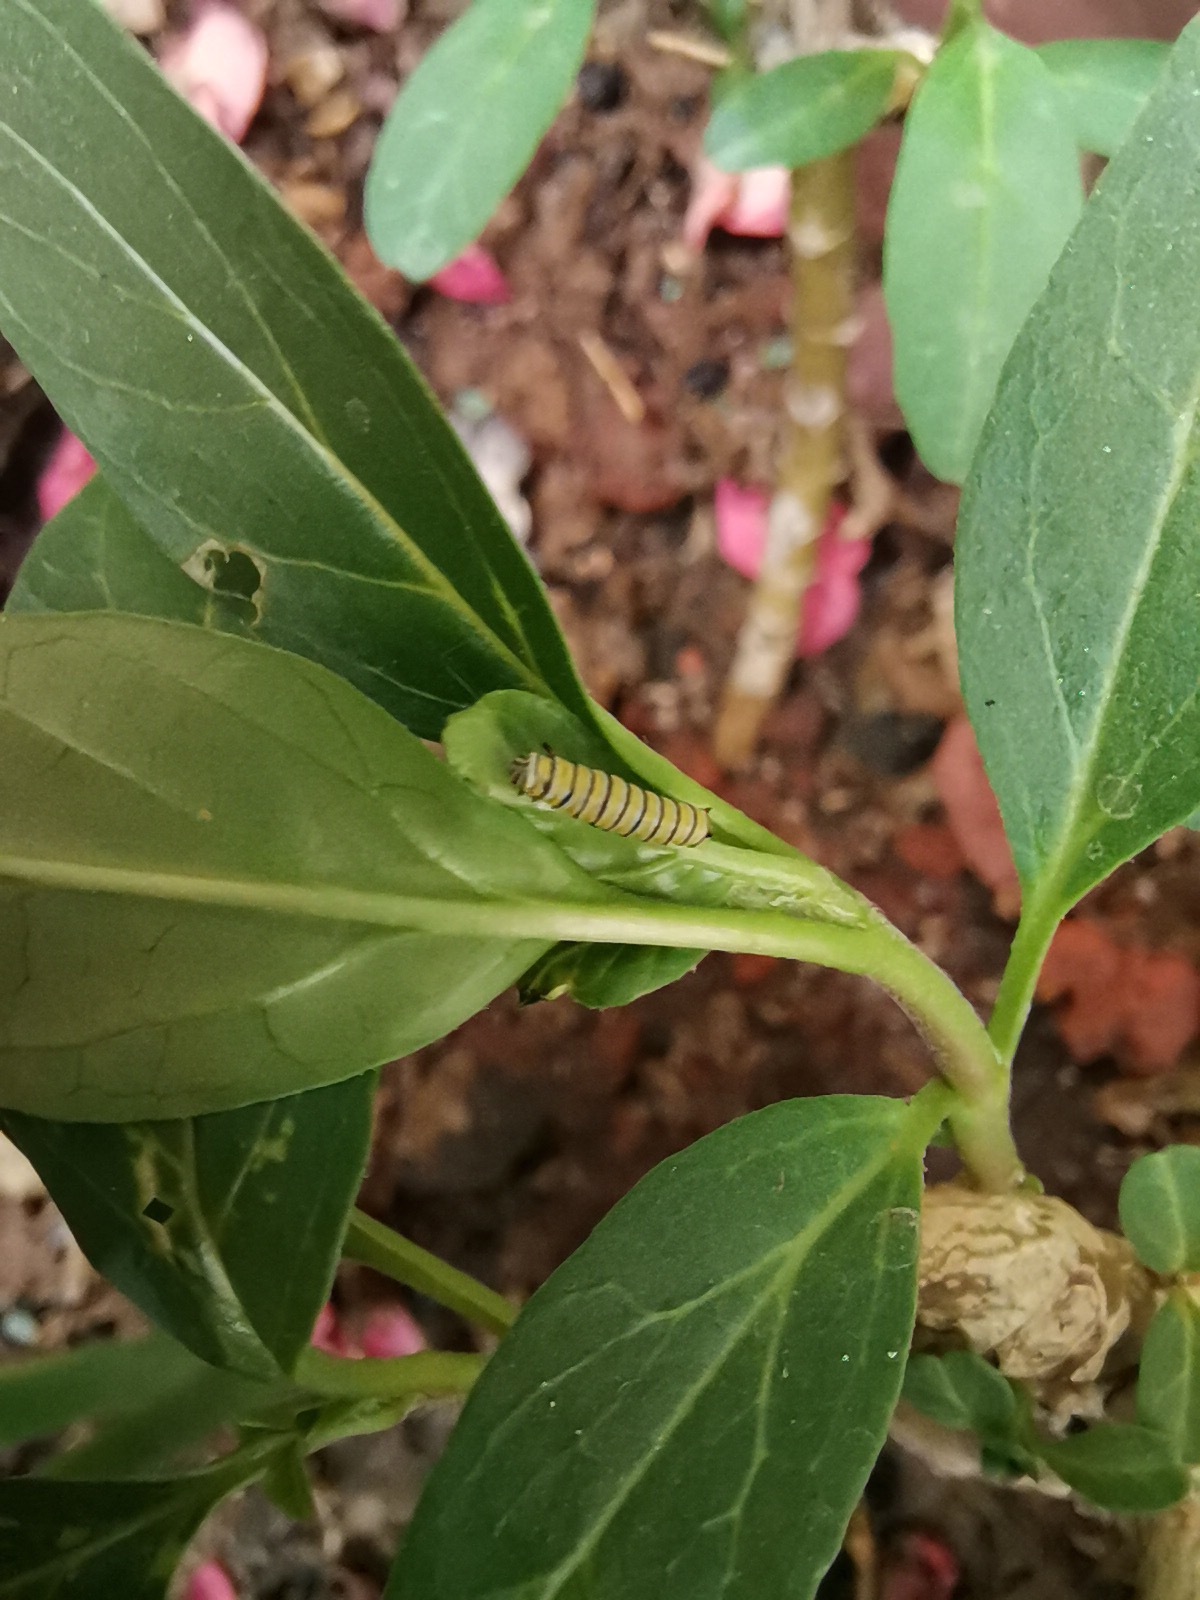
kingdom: Animalia
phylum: Arthropoda
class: Insecta
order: Lepidoptera
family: Nymphalidae
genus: Danaus
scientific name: Danaus plexippus
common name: Monarch
